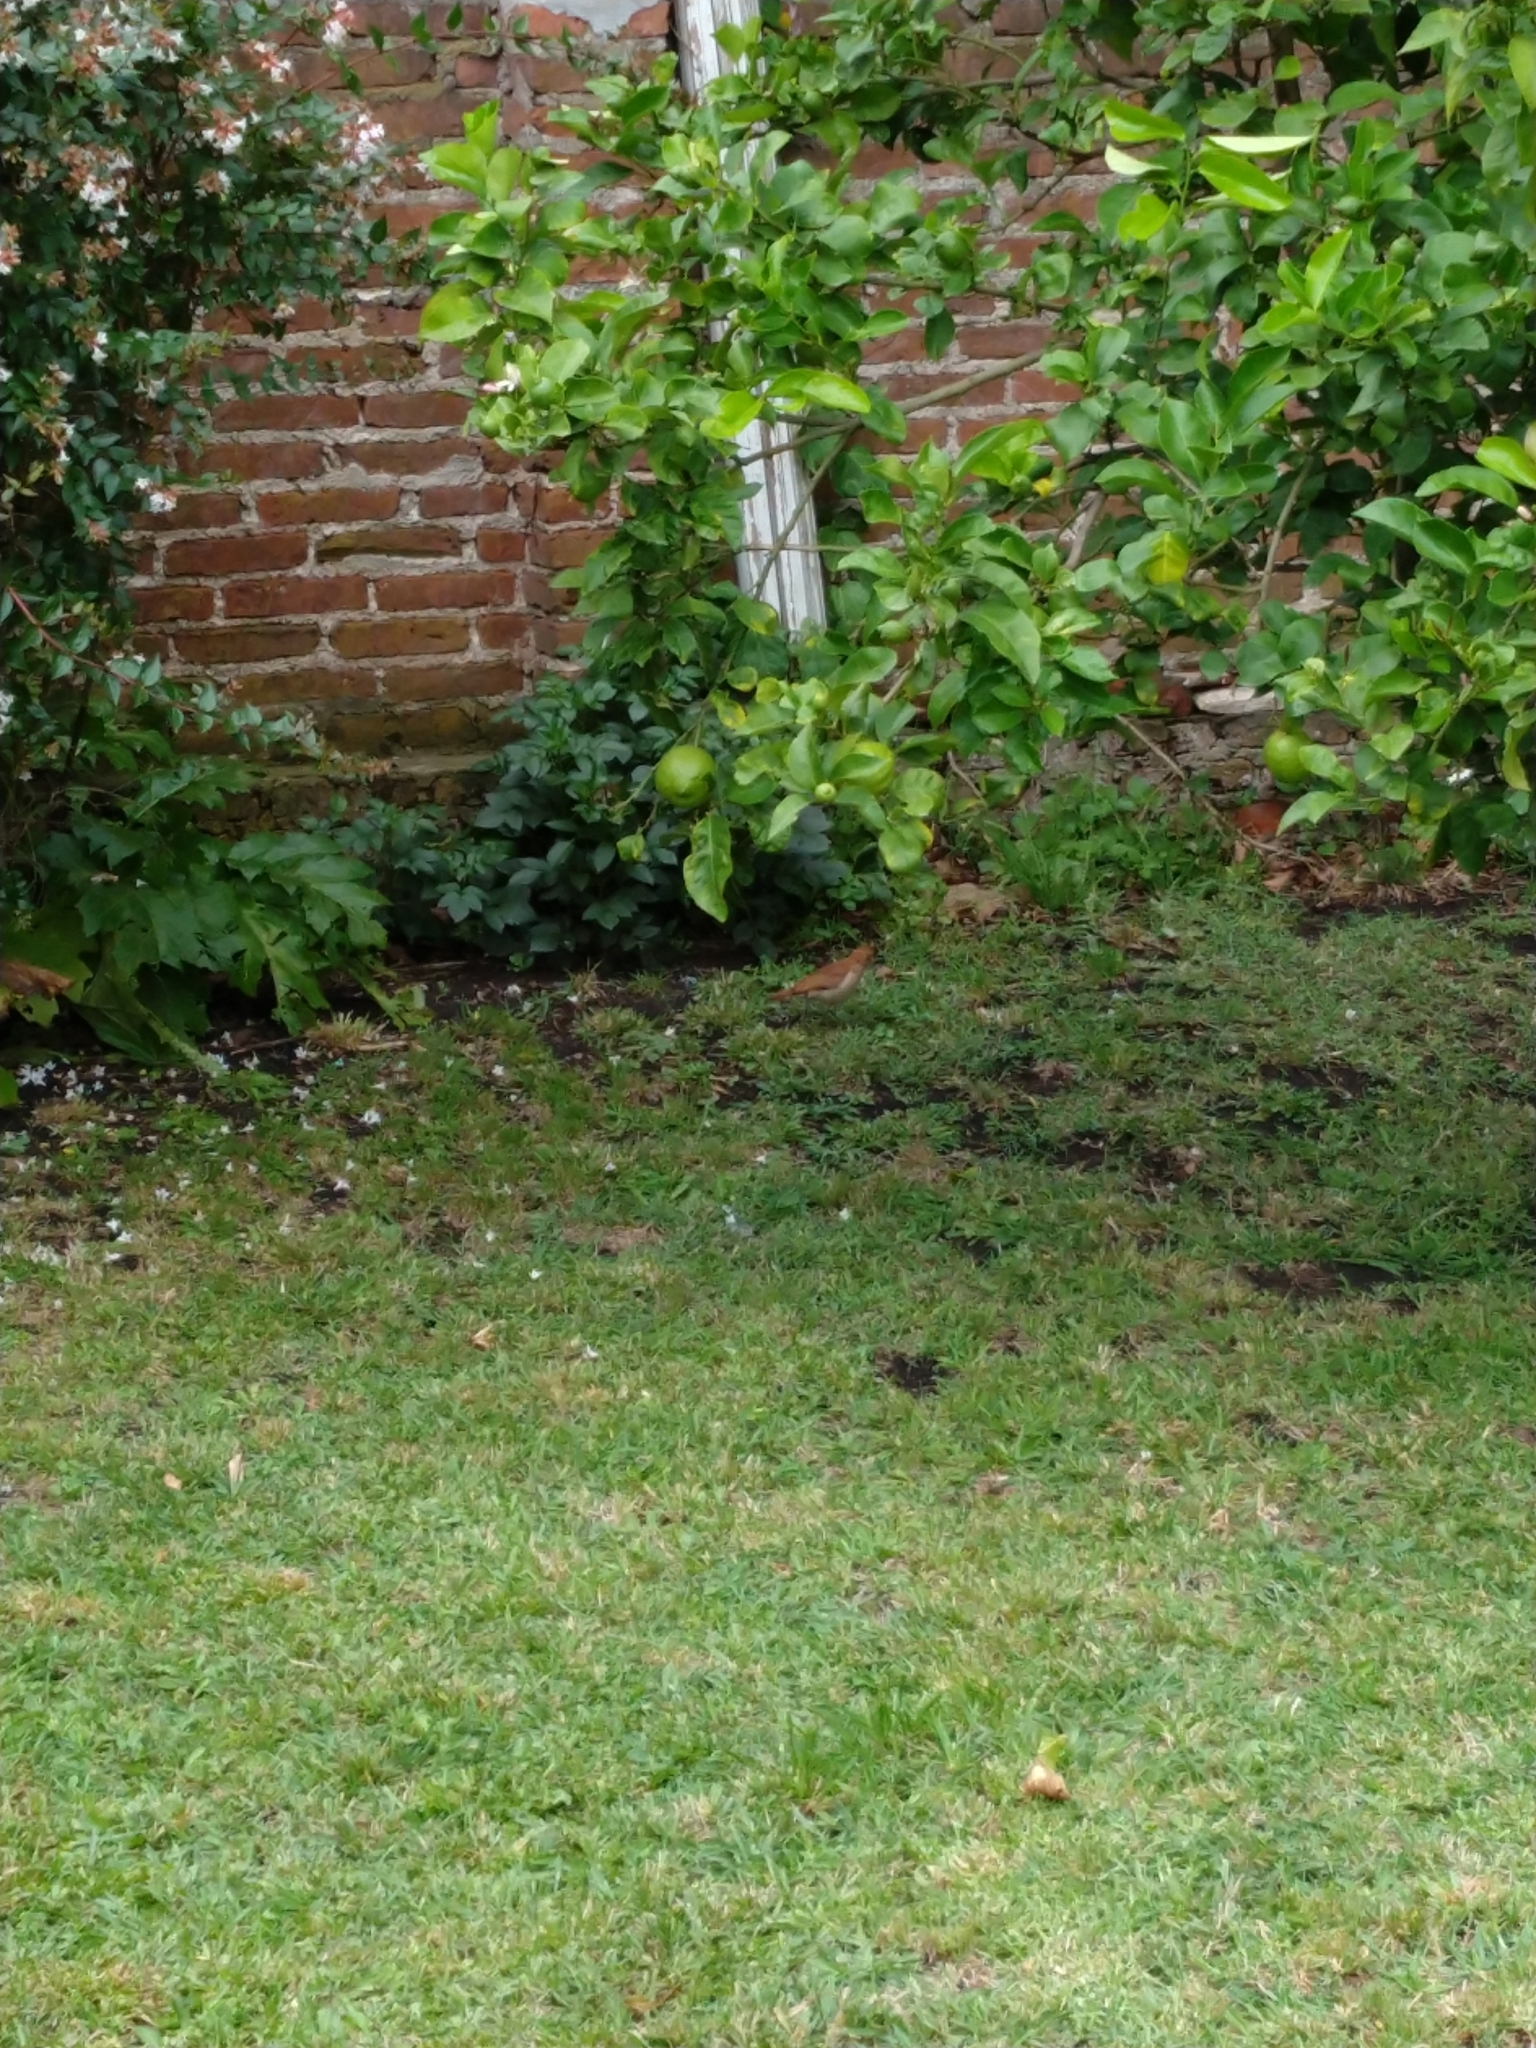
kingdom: Animalia
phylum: Chordata
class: Aves
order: Passeriformes
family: Furnariidae
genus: Furnarius
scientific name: Furnarius rufus
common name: Rufous hornero
